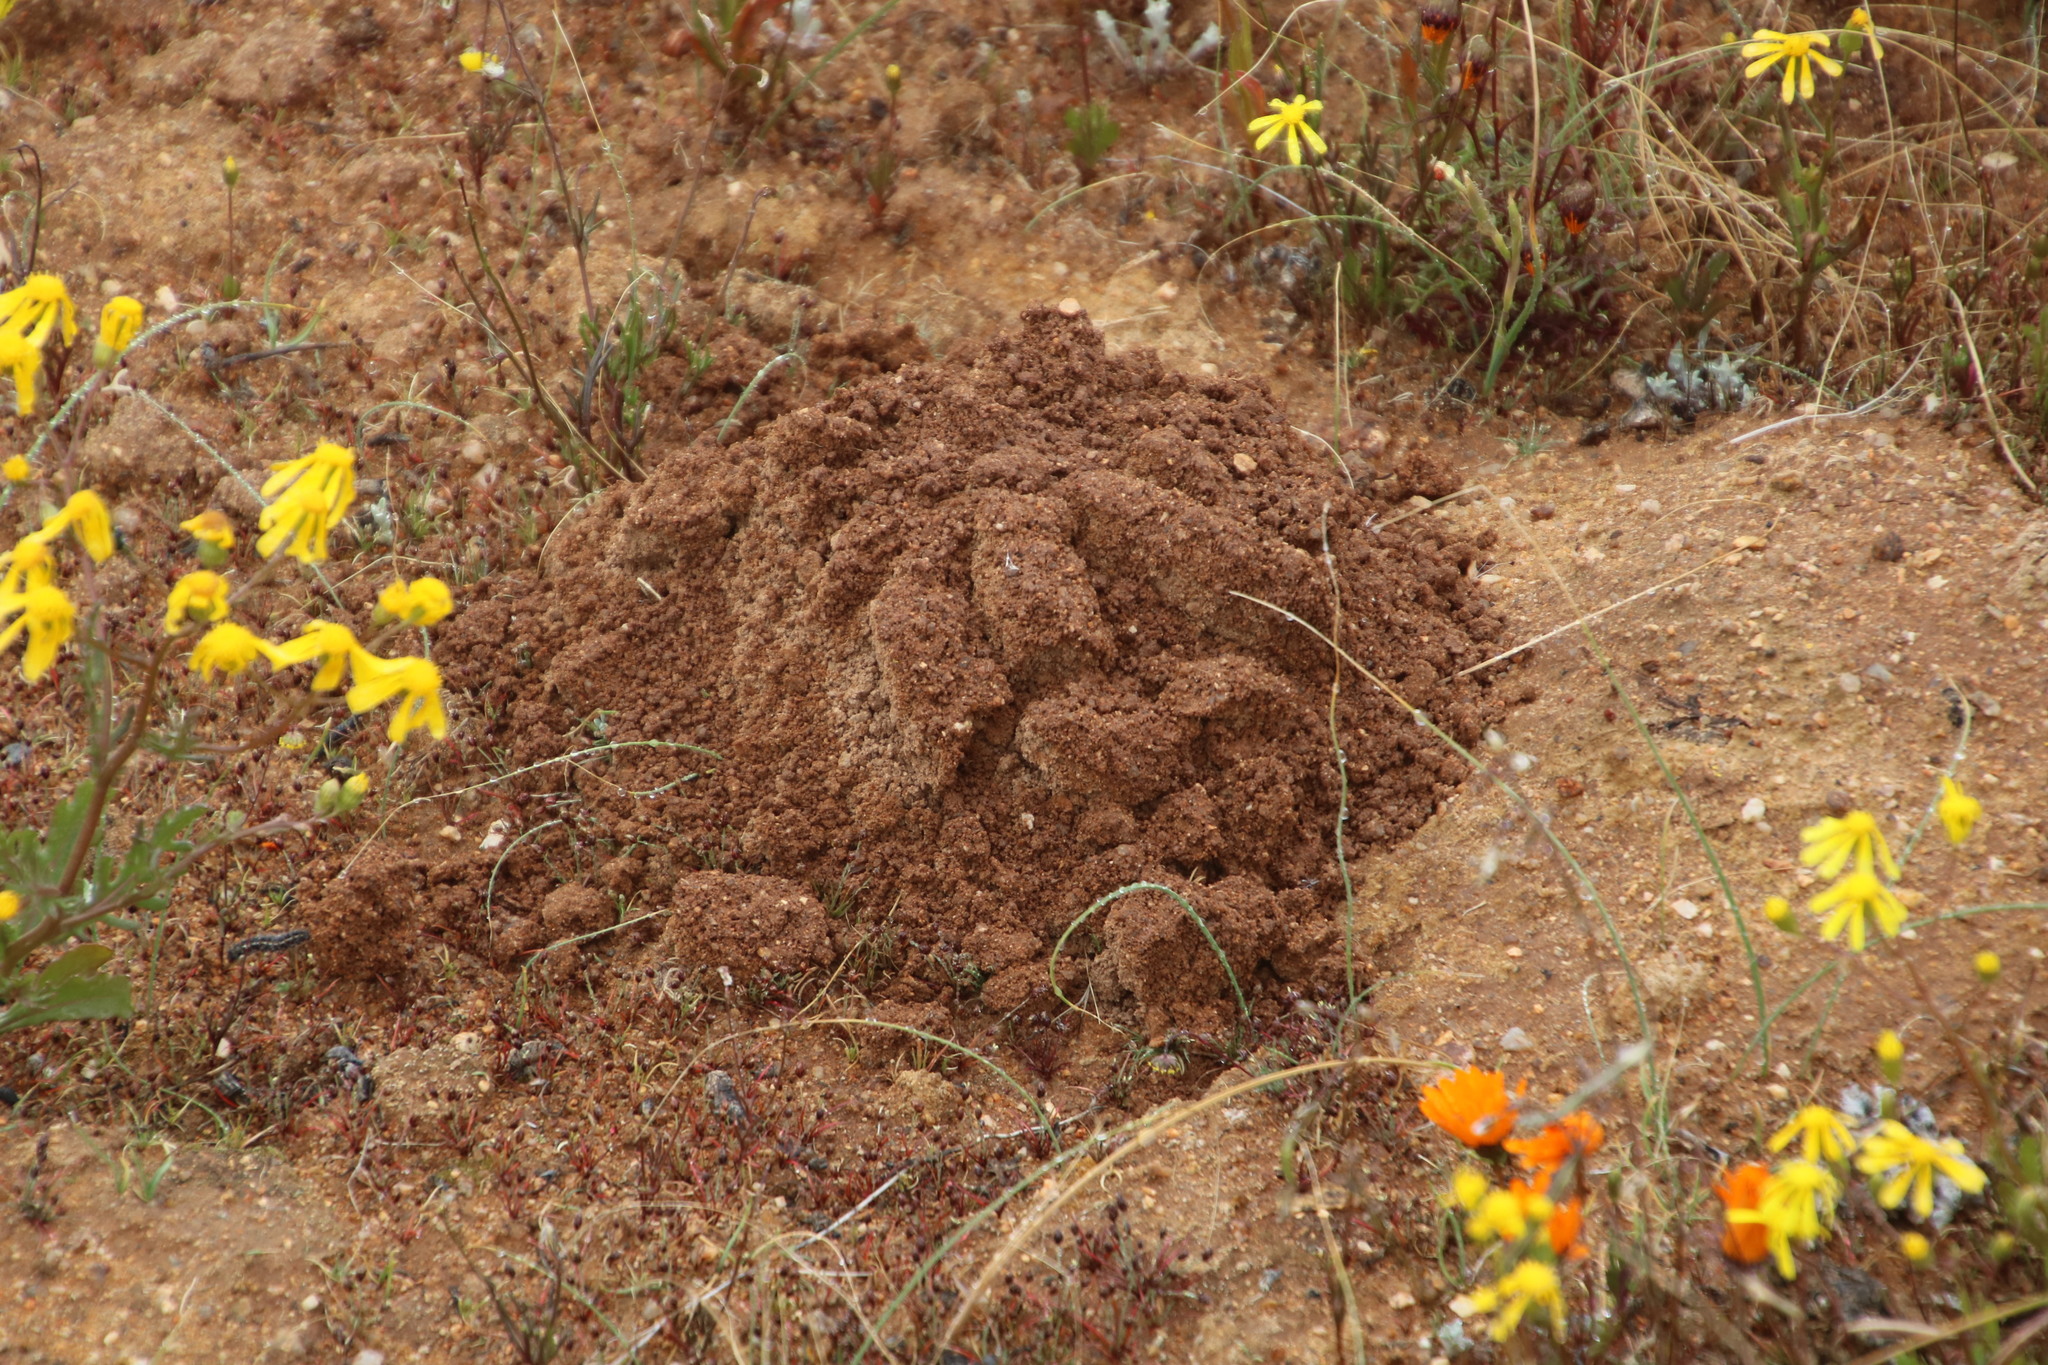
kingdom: Animalia
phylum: Chordata
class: Mammalia
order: Rodentia
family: Bathyergidae
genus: Cryptomys
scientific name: Cryptomys hottentotus
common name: Southern african mole-rat
